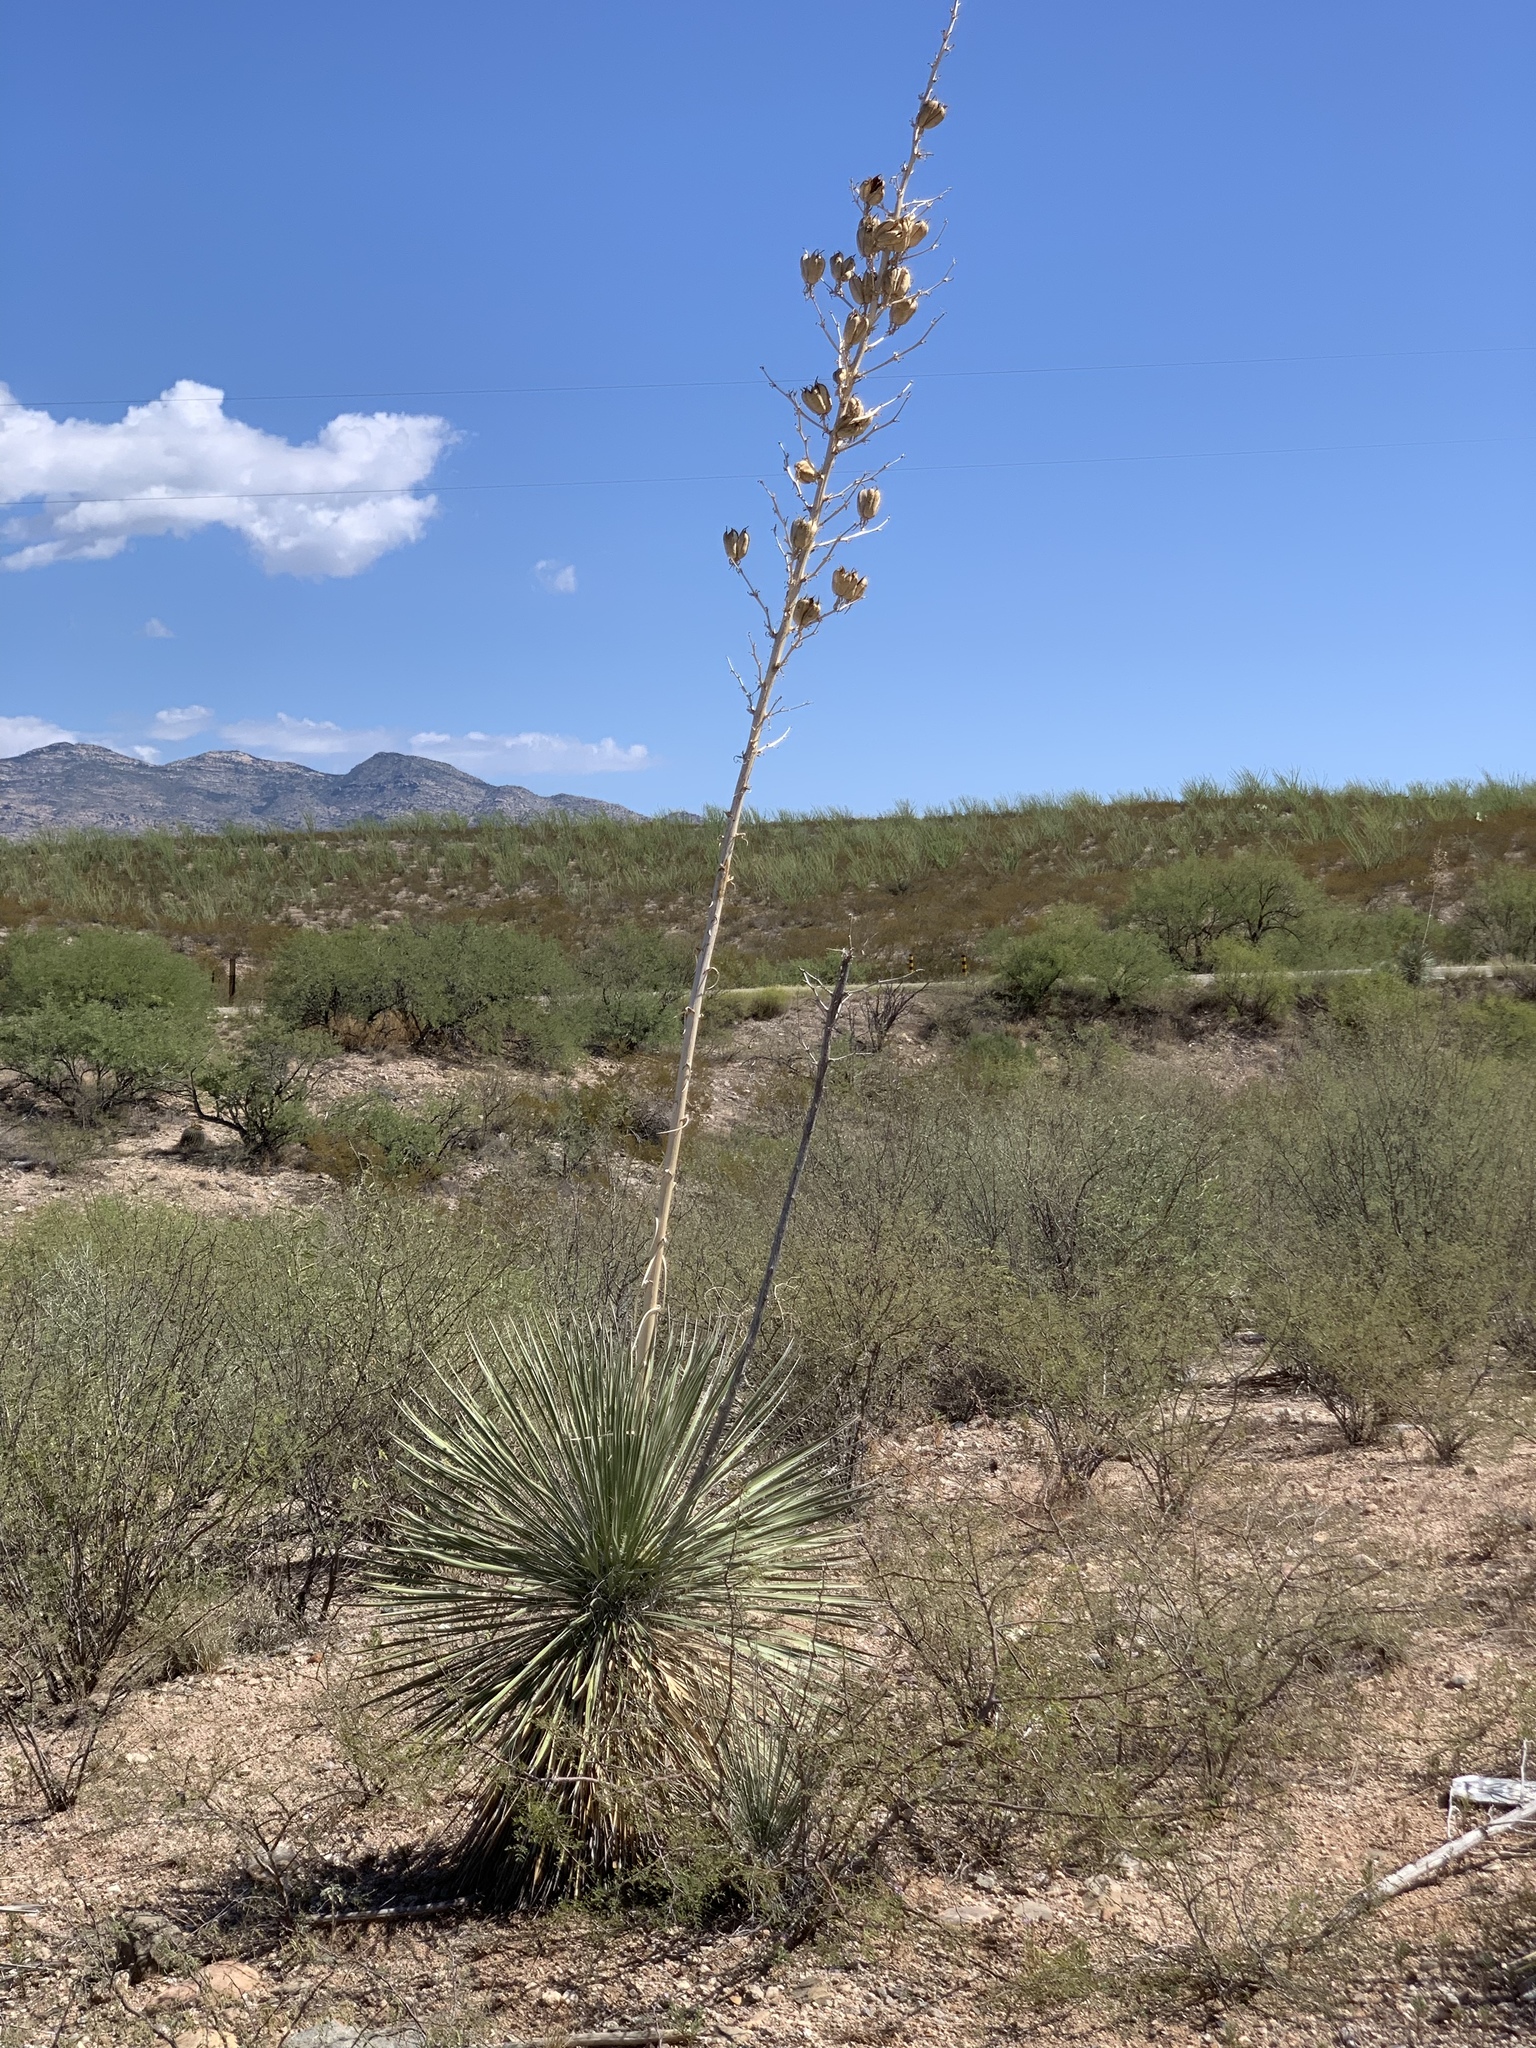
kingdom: Plantae
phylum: Tracheophyta
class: Liliopsida
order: Asparagales
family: Asparagaceae
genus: Yucca
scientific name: Yucca elata
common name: Palmella
